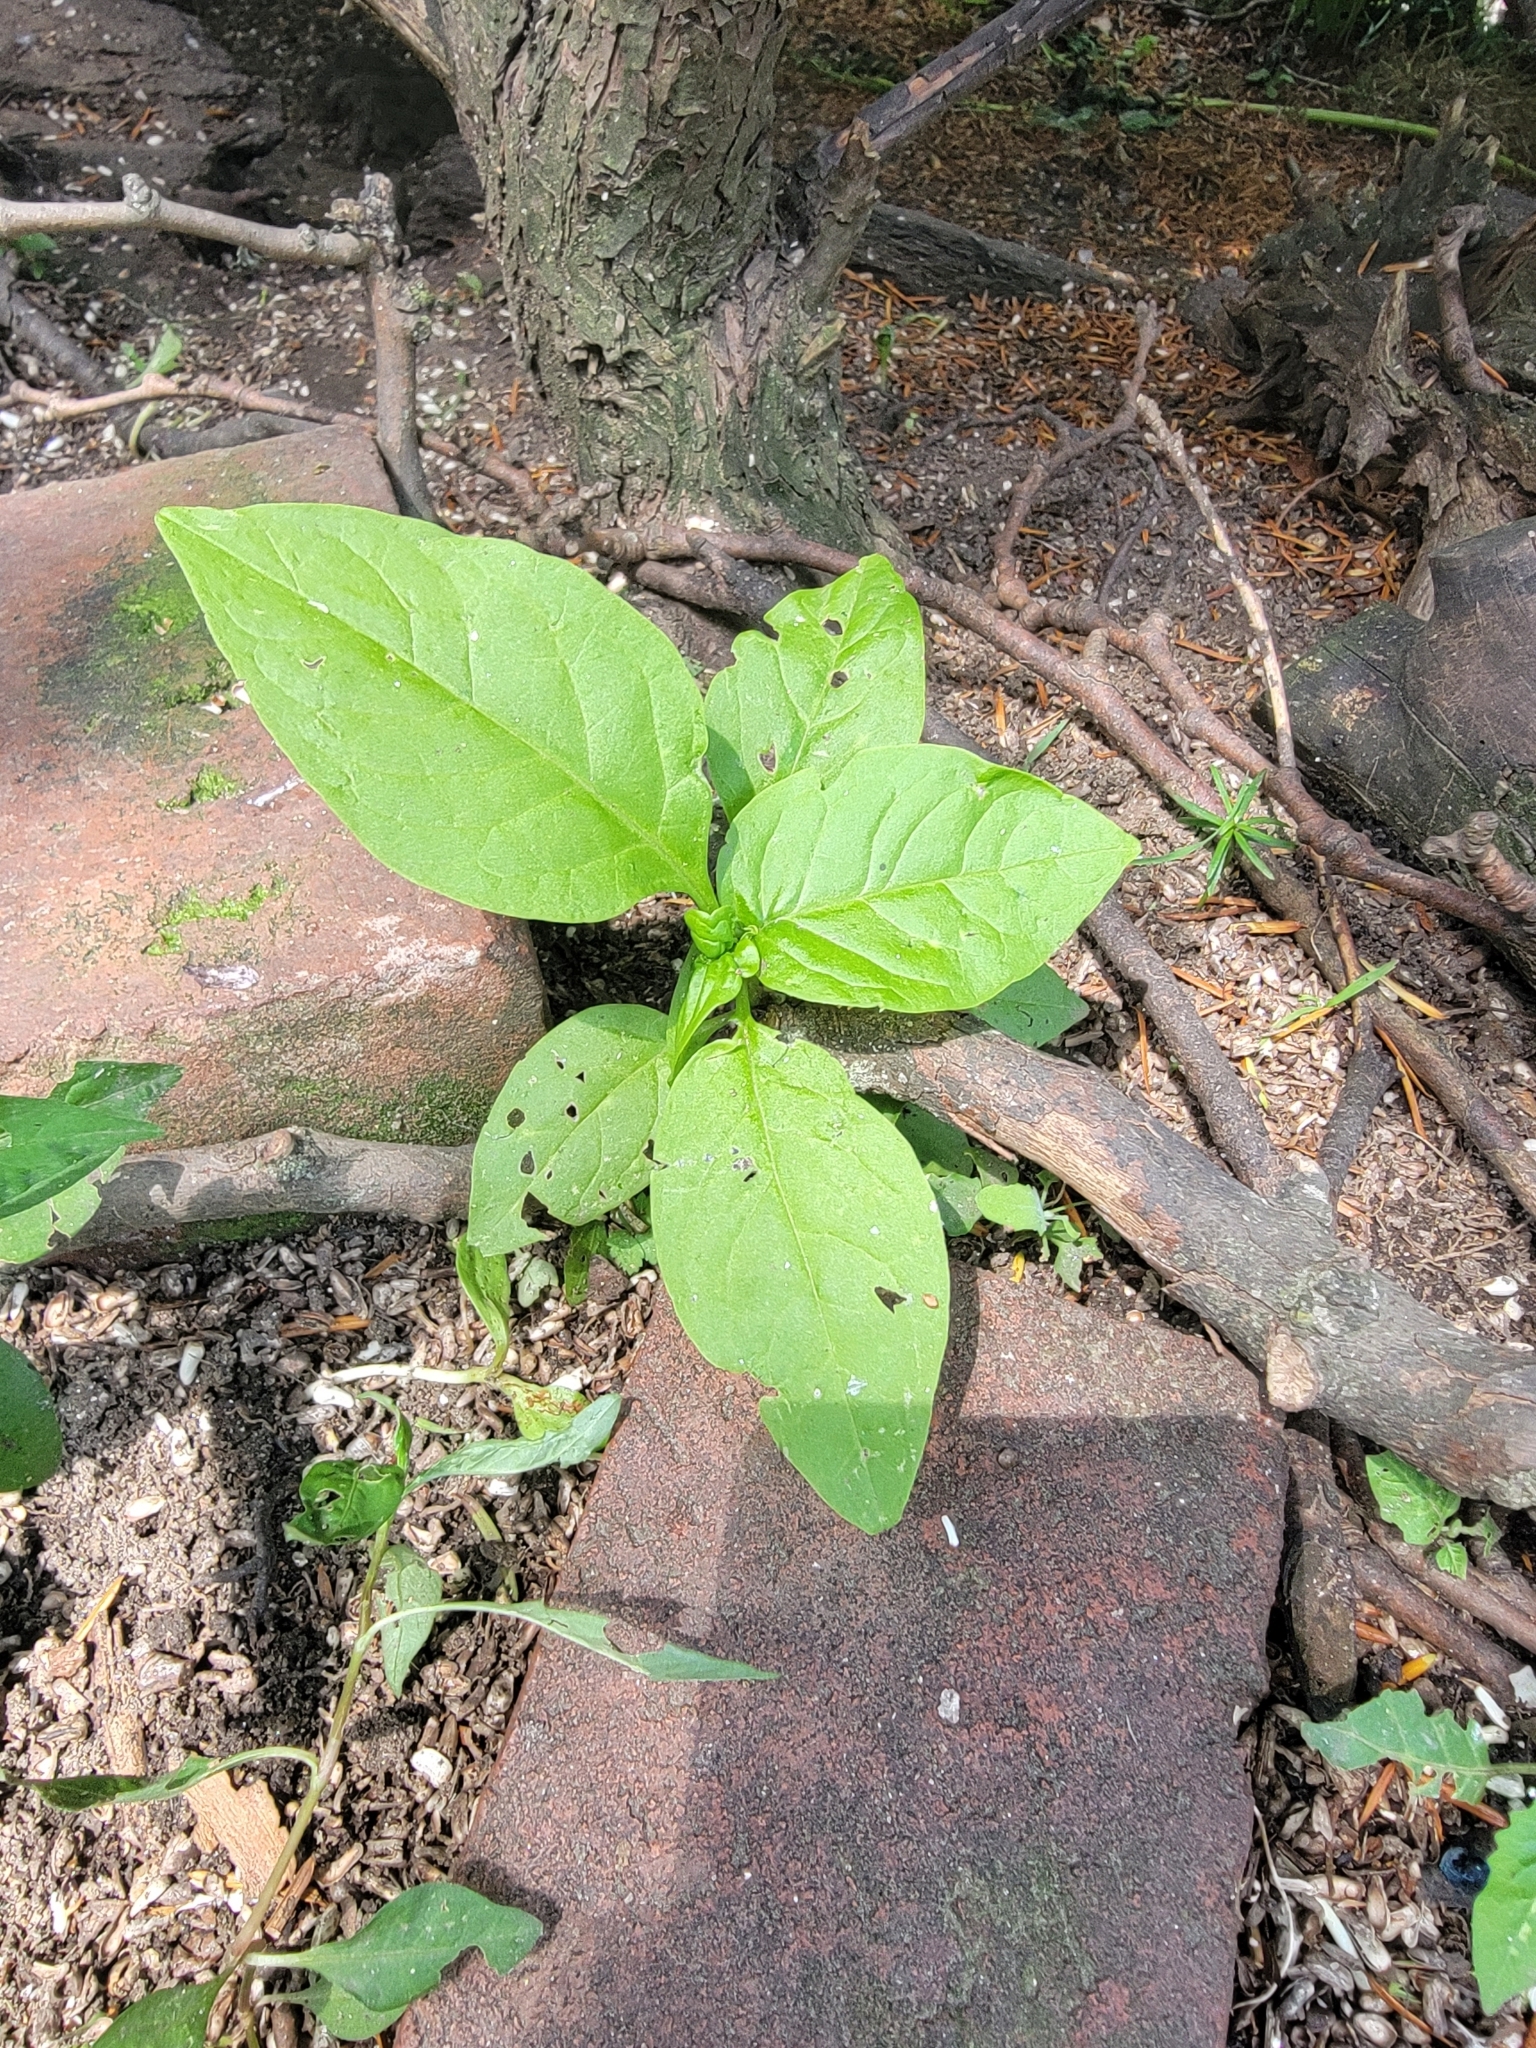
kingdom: Plantae
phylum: Tracheophyta
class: Magnoliopsida
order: Caryophyllales
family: Phytolaccaceae
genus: Phytolacca
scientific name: Phytolacca americana
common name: American pokeweed
